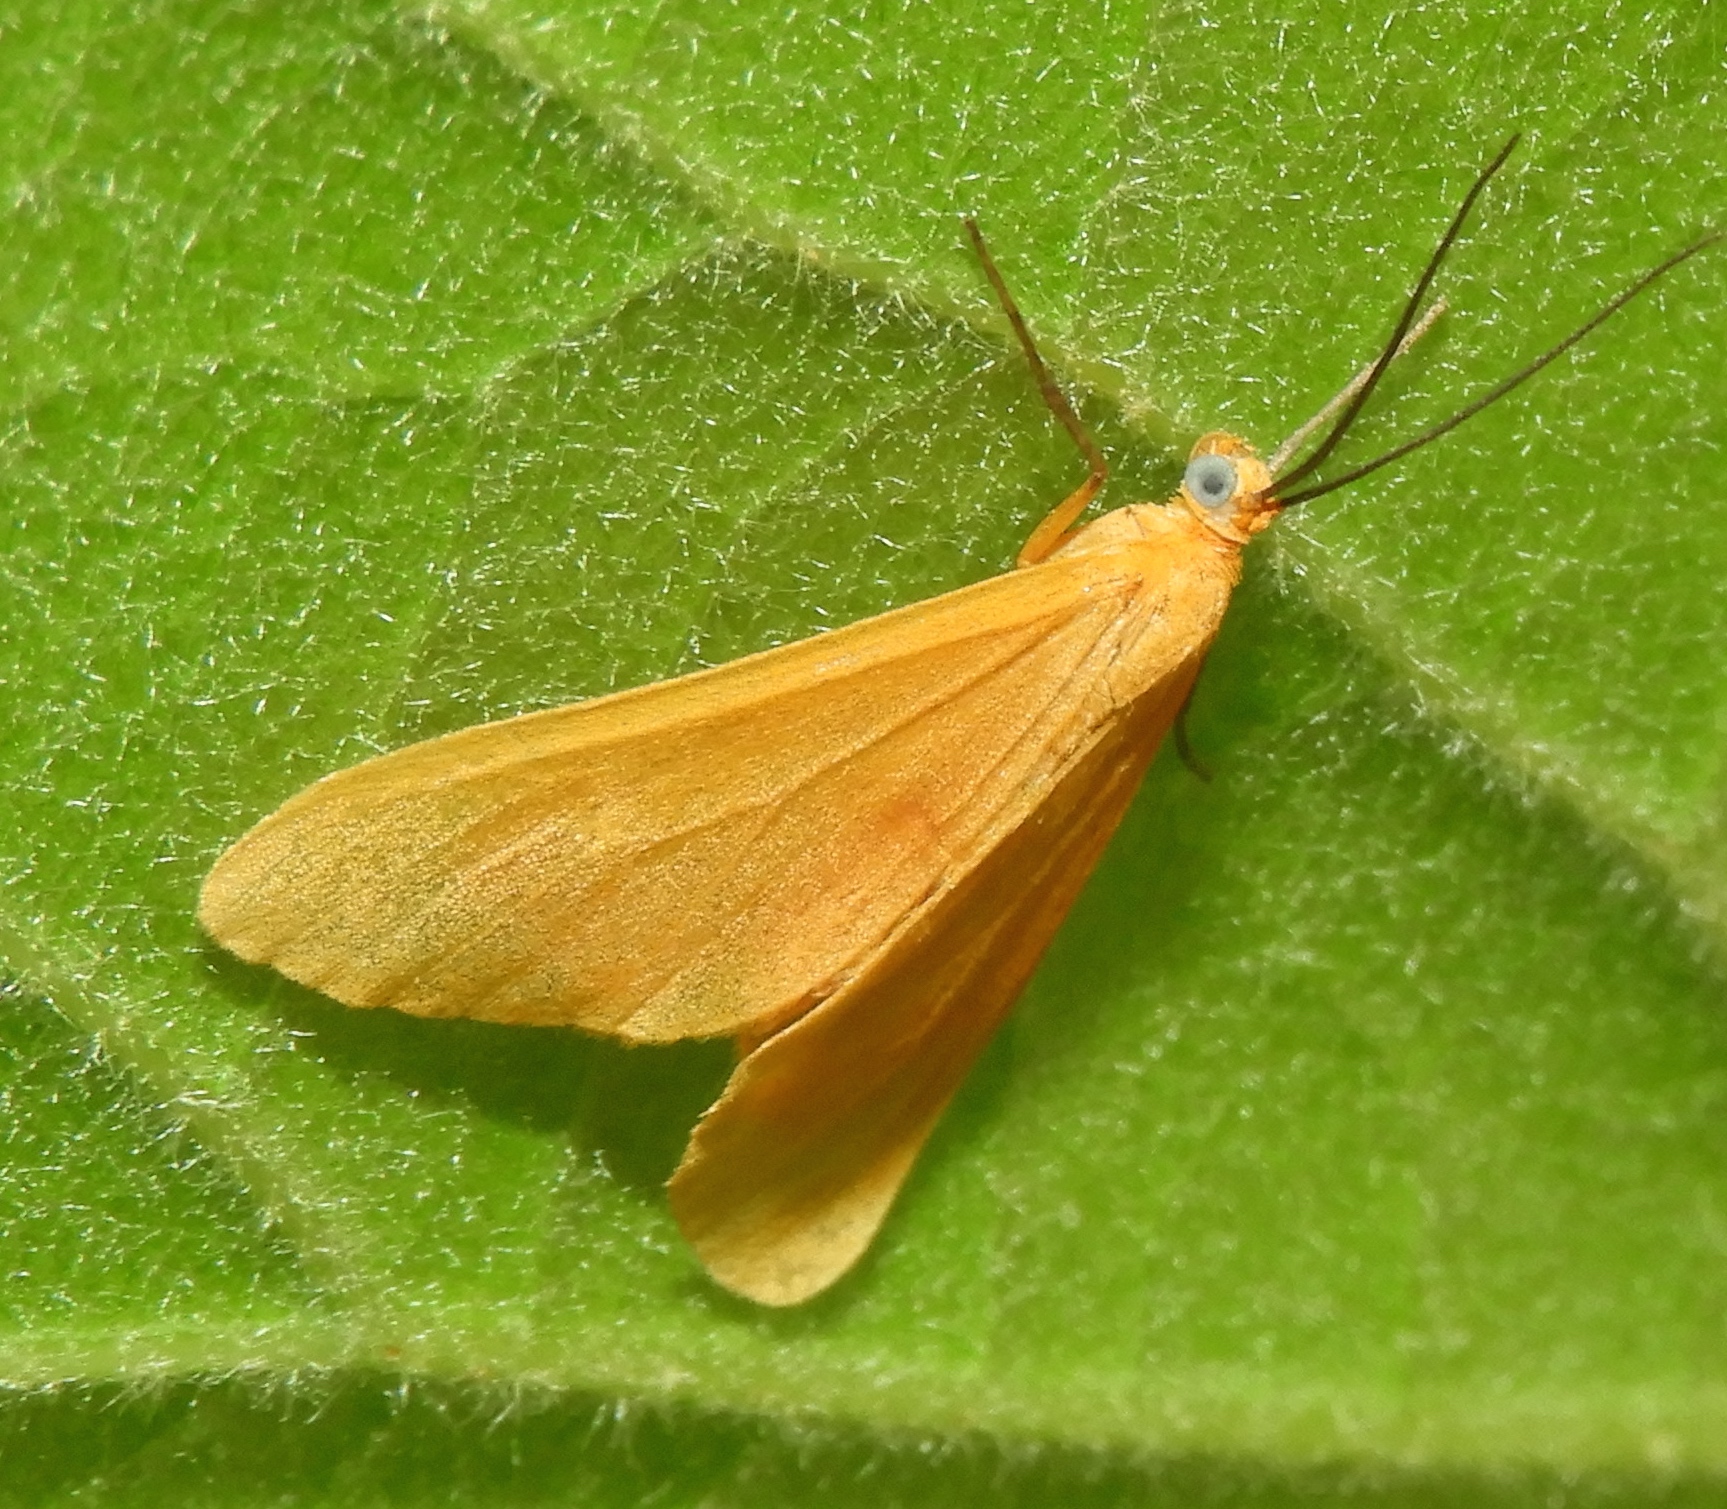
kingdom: Animalia
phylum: Arthropoda
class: Insecta
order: Lepidoptera
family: Geometridae
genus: Eubaphe
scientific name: Eubaphe unicolor
